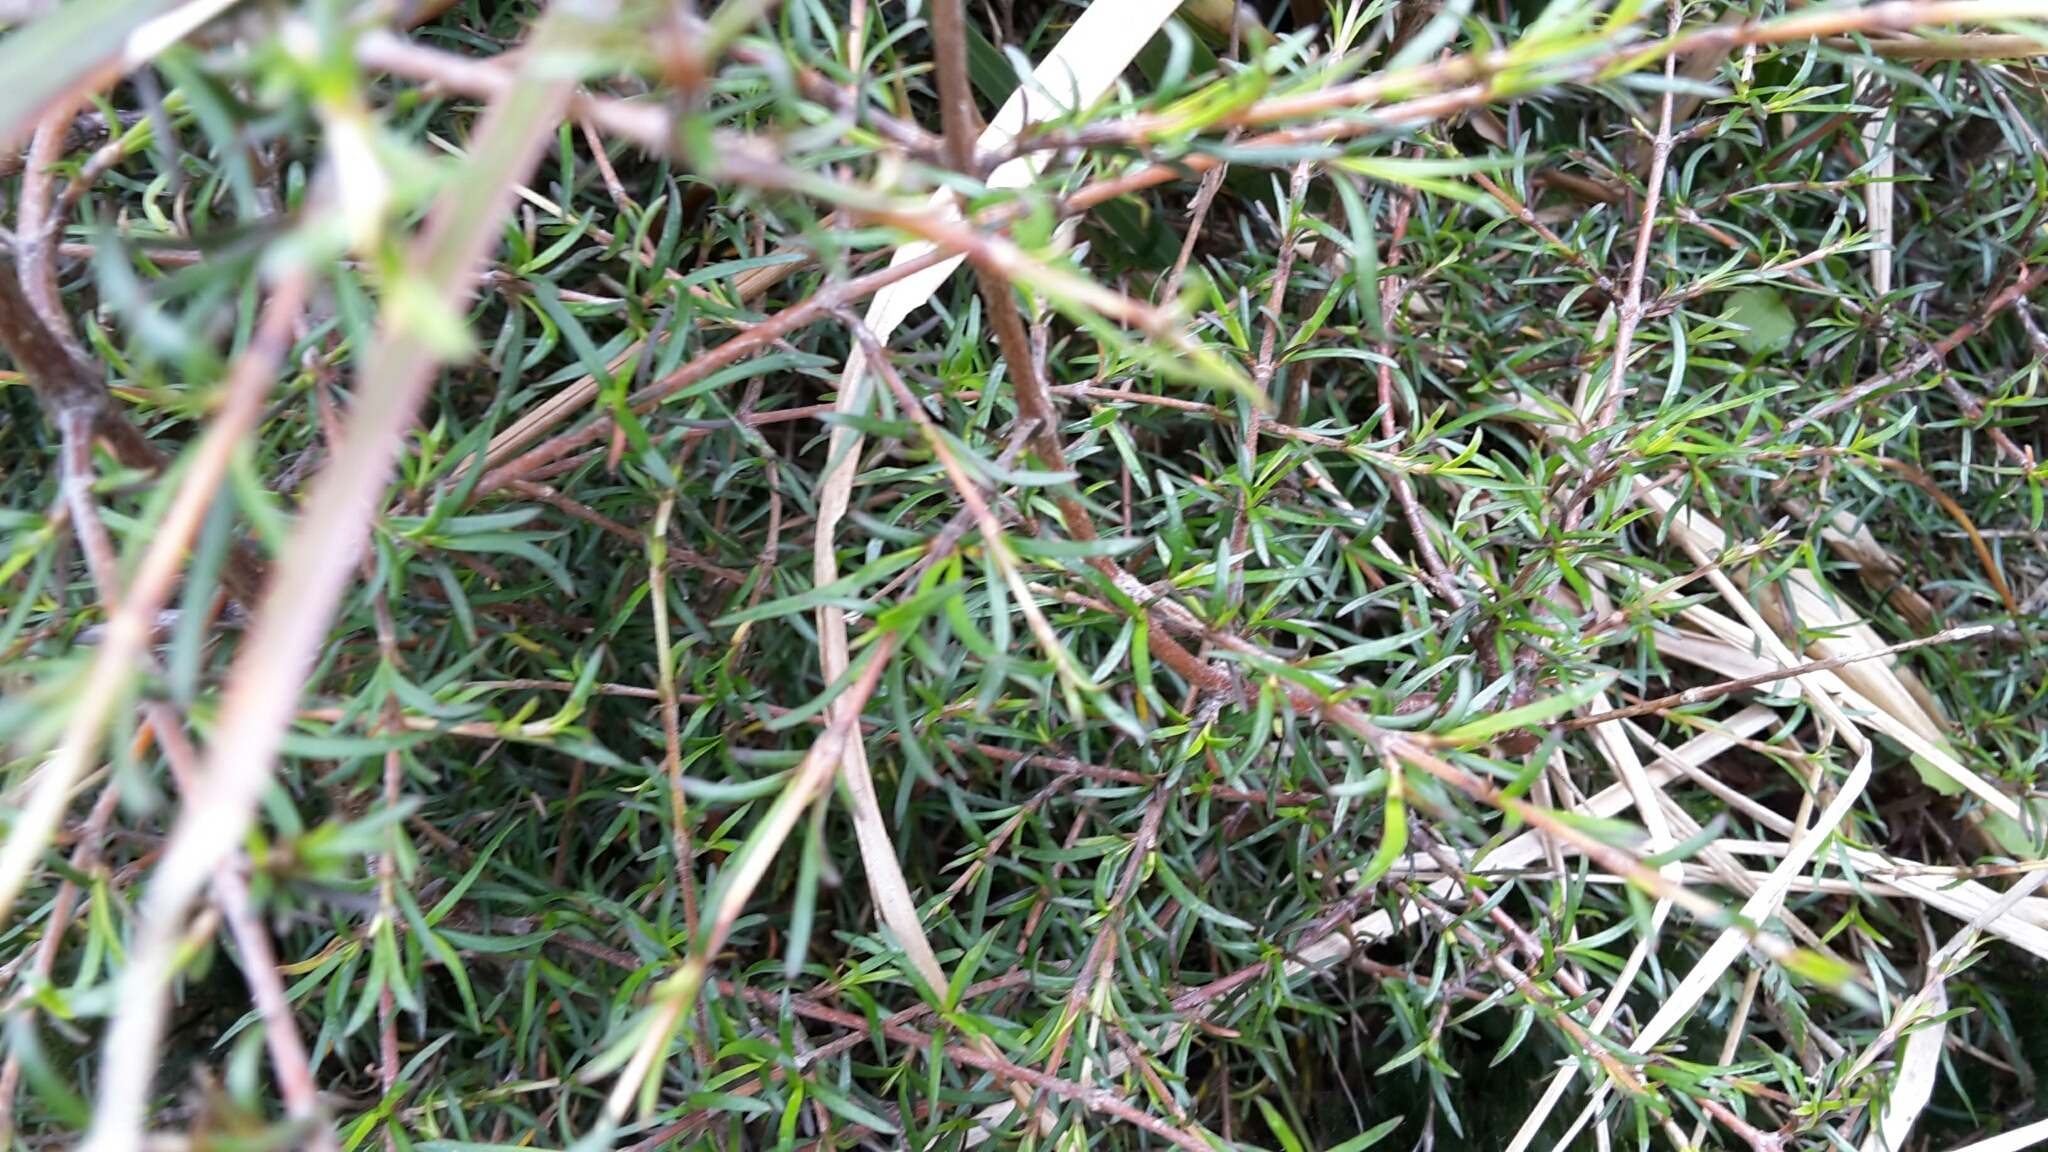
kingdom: Plantae
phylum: Tracheophyta
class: Magnoliopsida
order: Gentianales
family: Rubiaceae
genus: Coprosma
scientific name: Coprosma rugosa
